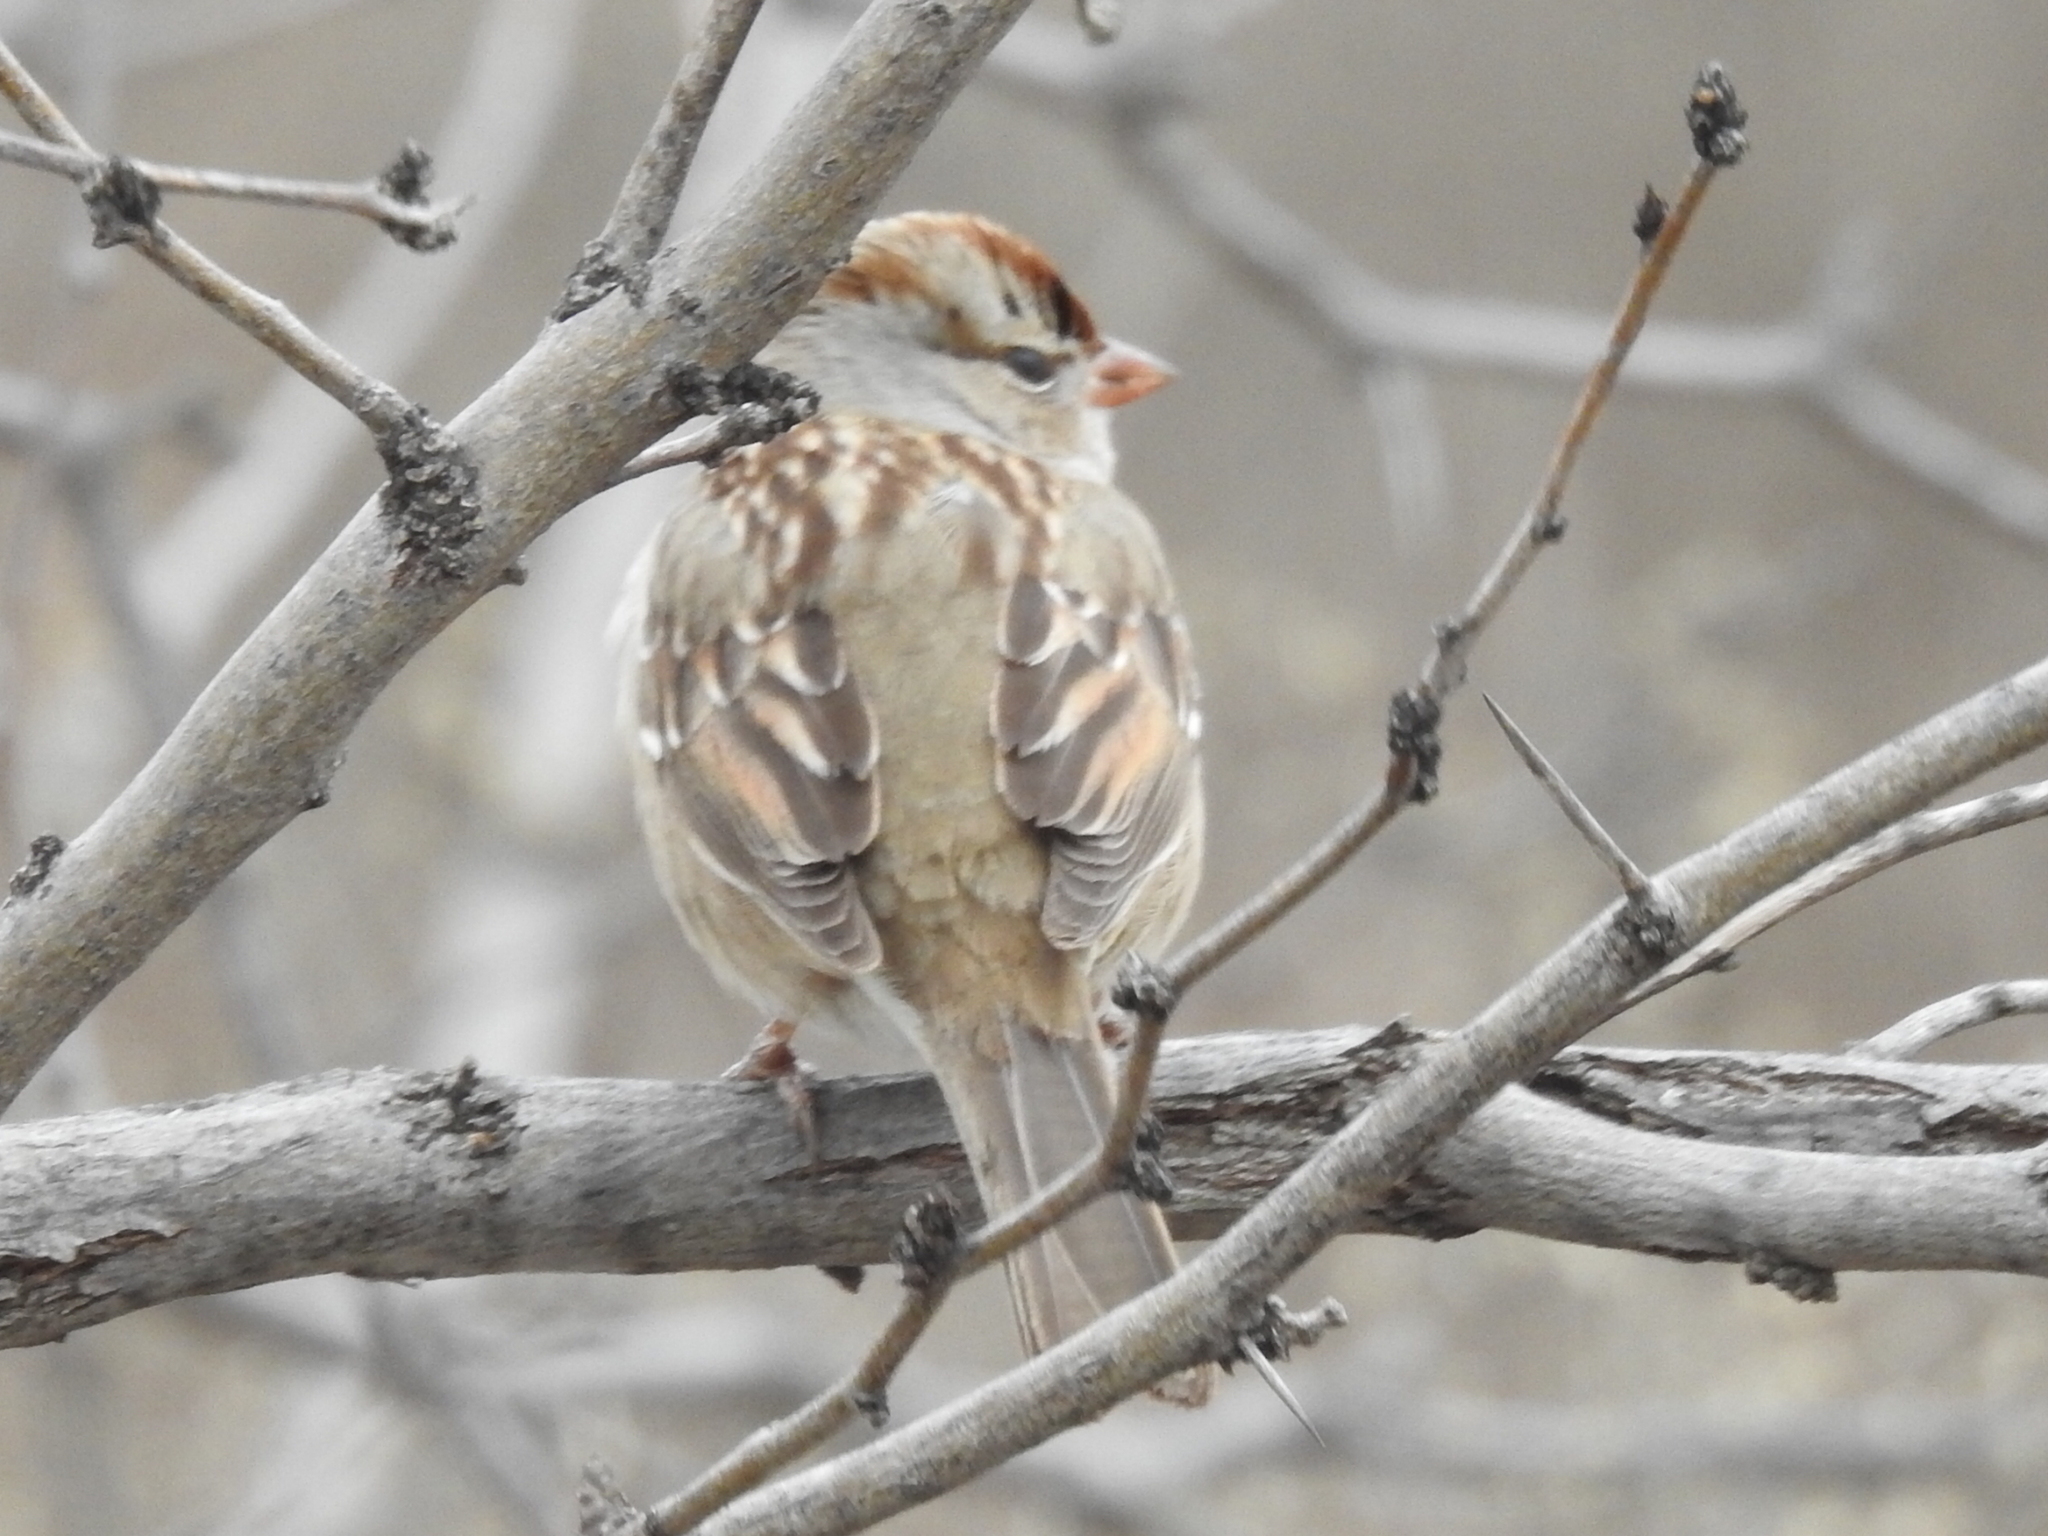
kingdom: Animalia
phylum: Chordata
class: Aves
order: Passeriformes
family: Passerellidae
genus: Zonotrichia
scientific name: Zonotrichia leucophrys
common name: White-crowned sparrow
